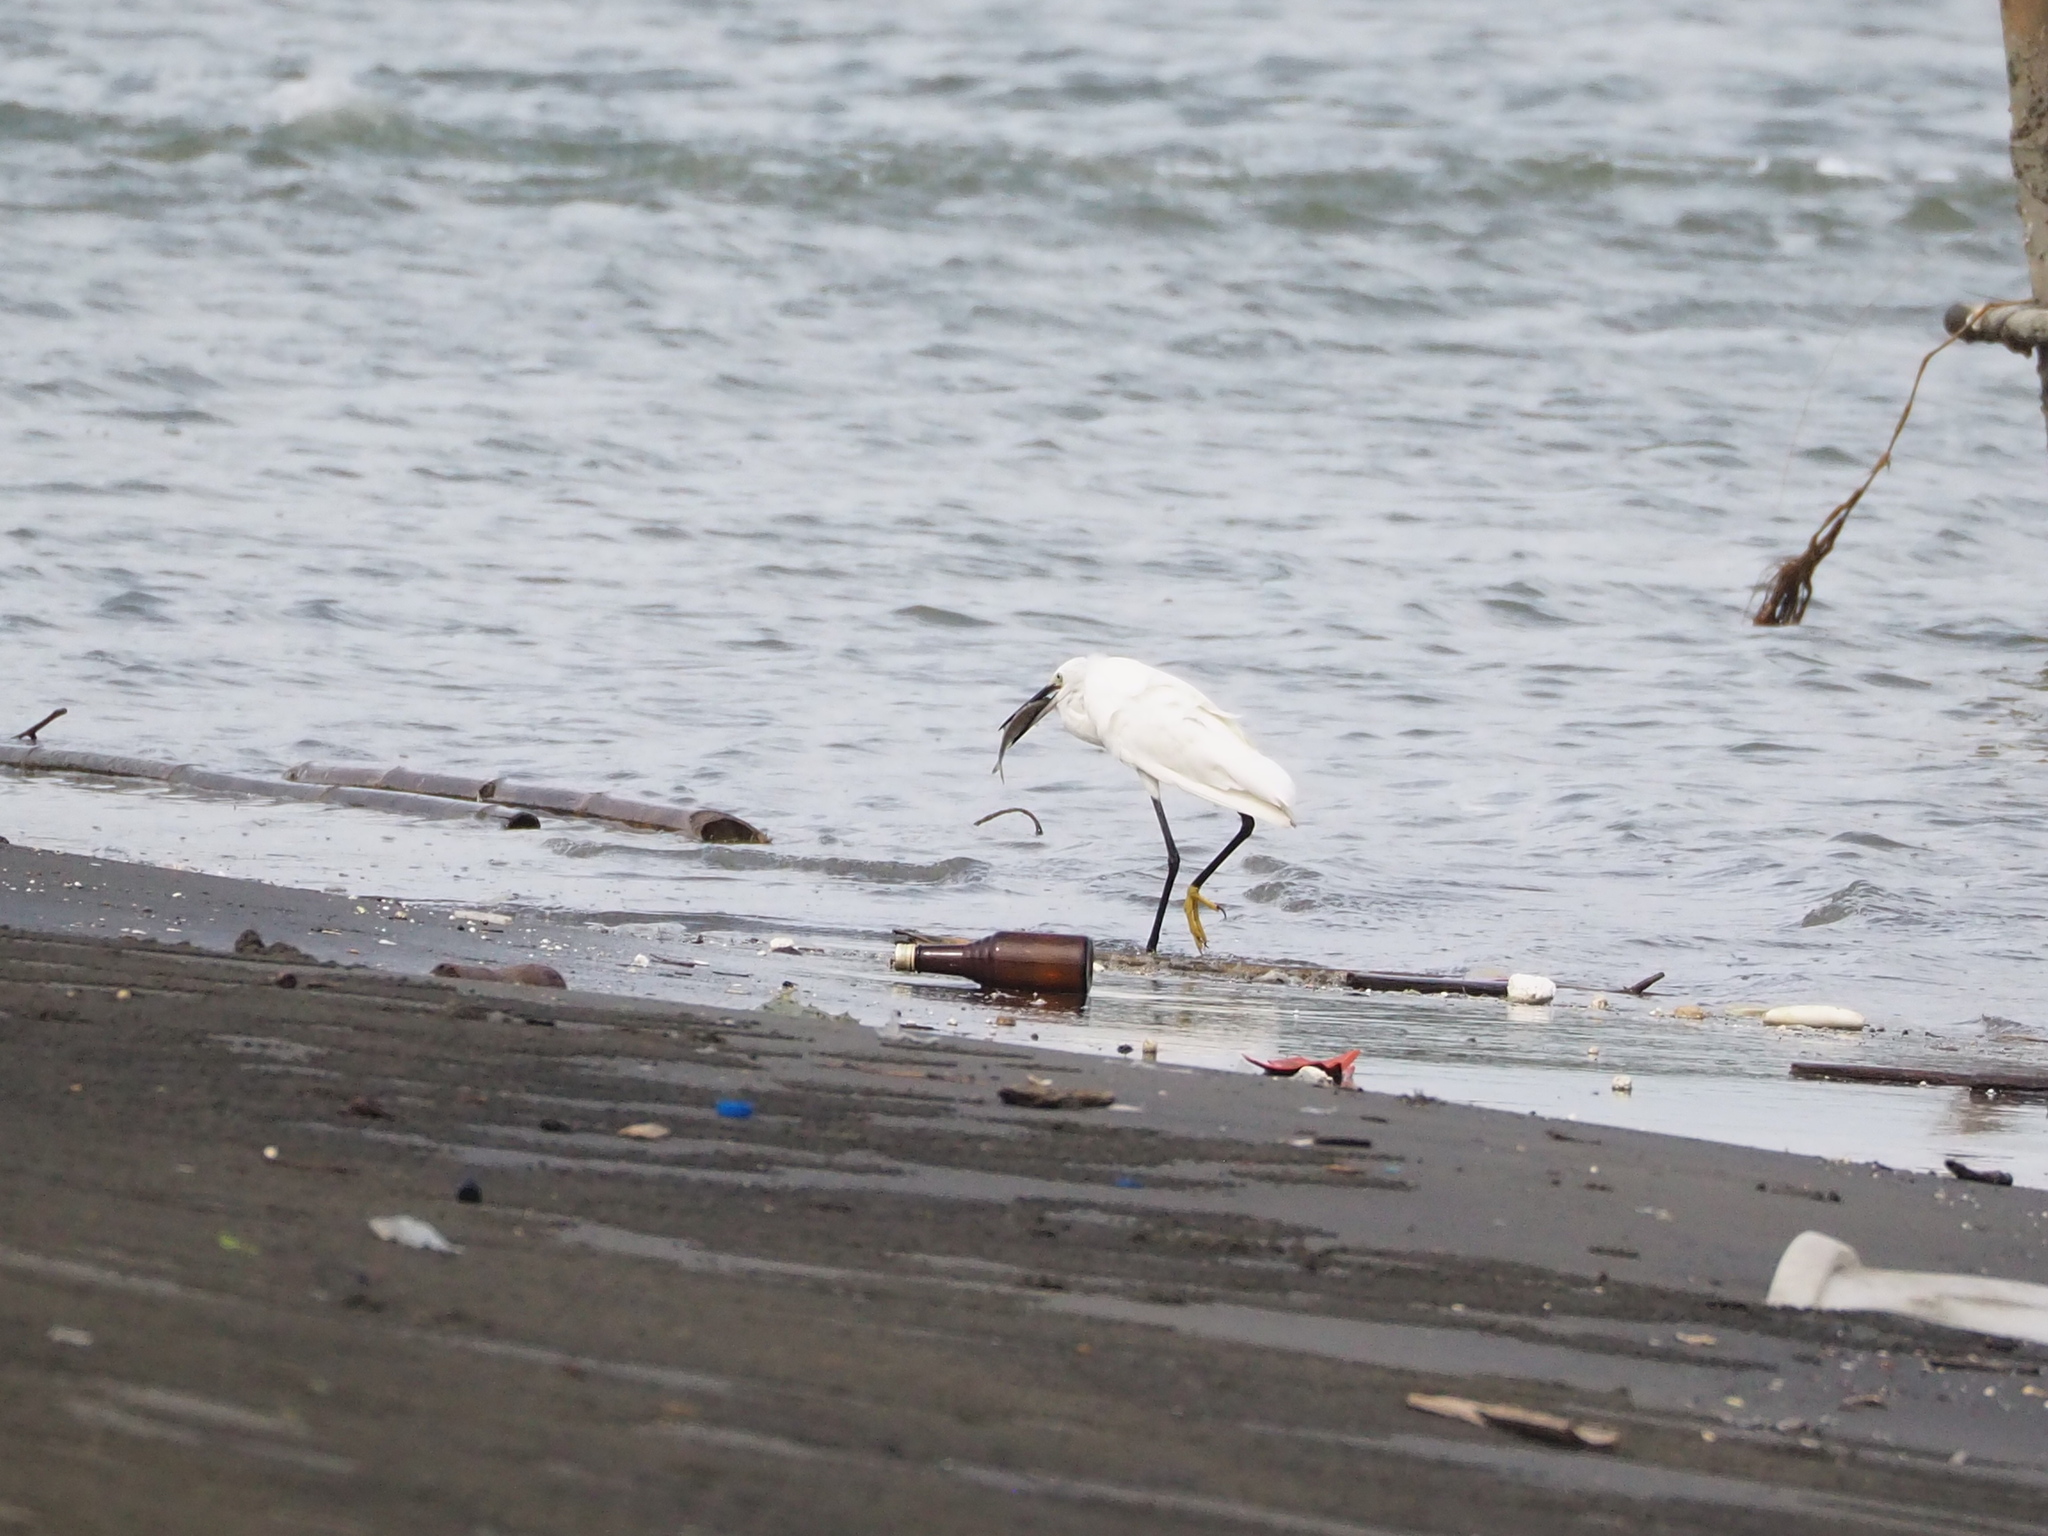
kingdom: Animalia
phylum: Chordata
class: Aves
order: Pelecaniformes
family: Ardeidae
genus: Egretta
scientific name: Egretta garzetta
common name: Little egret
